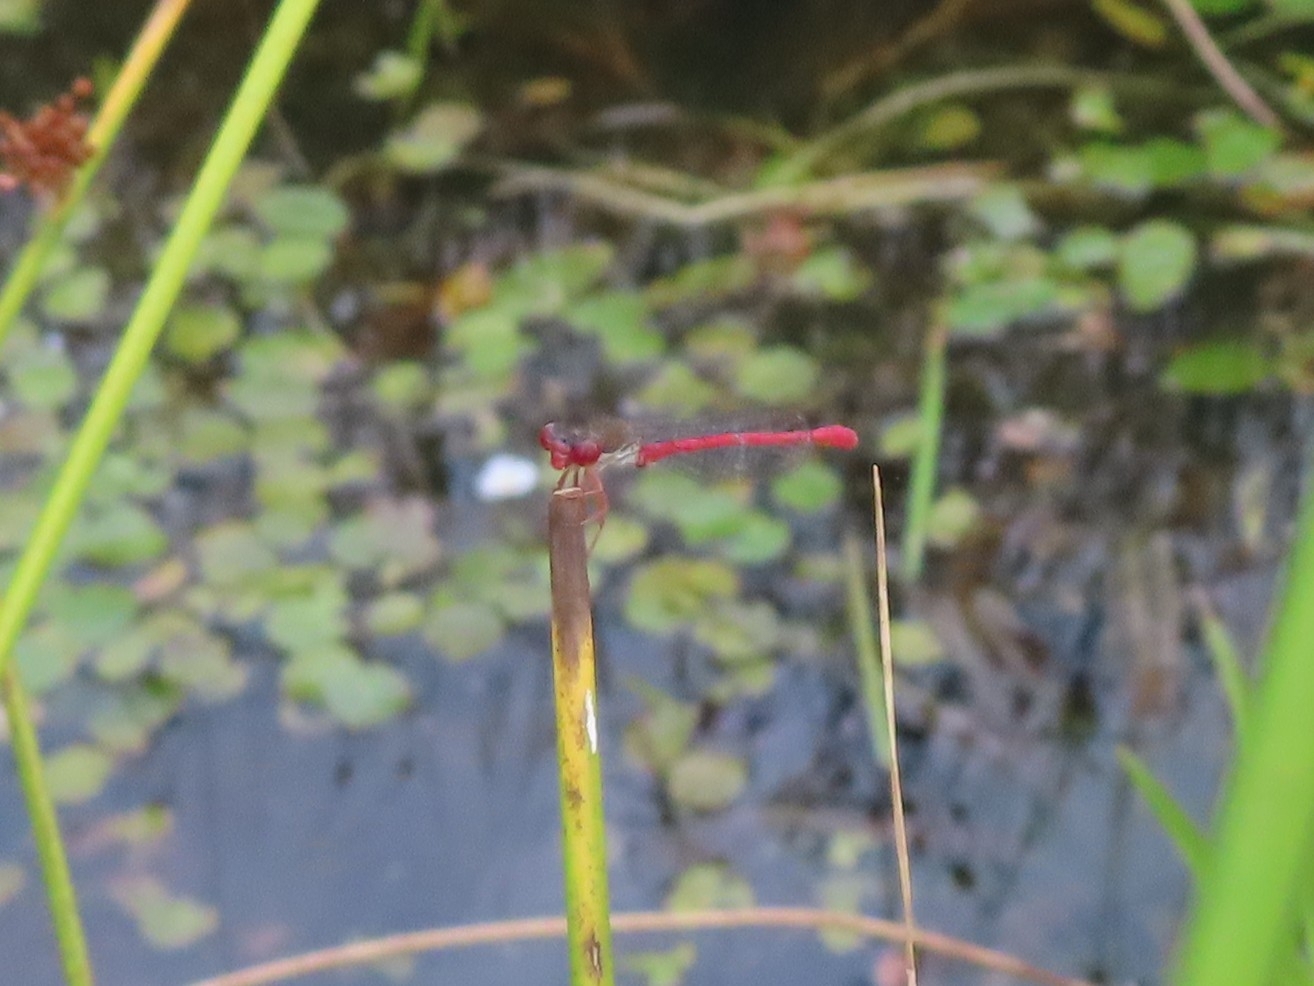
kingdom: Animalia
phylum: Arthropoda
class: Insecta
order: Odonata
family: Coenagrionidae
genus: Ceriagrion
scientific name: Ceriagrion tenellum
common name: Small red damselfly
